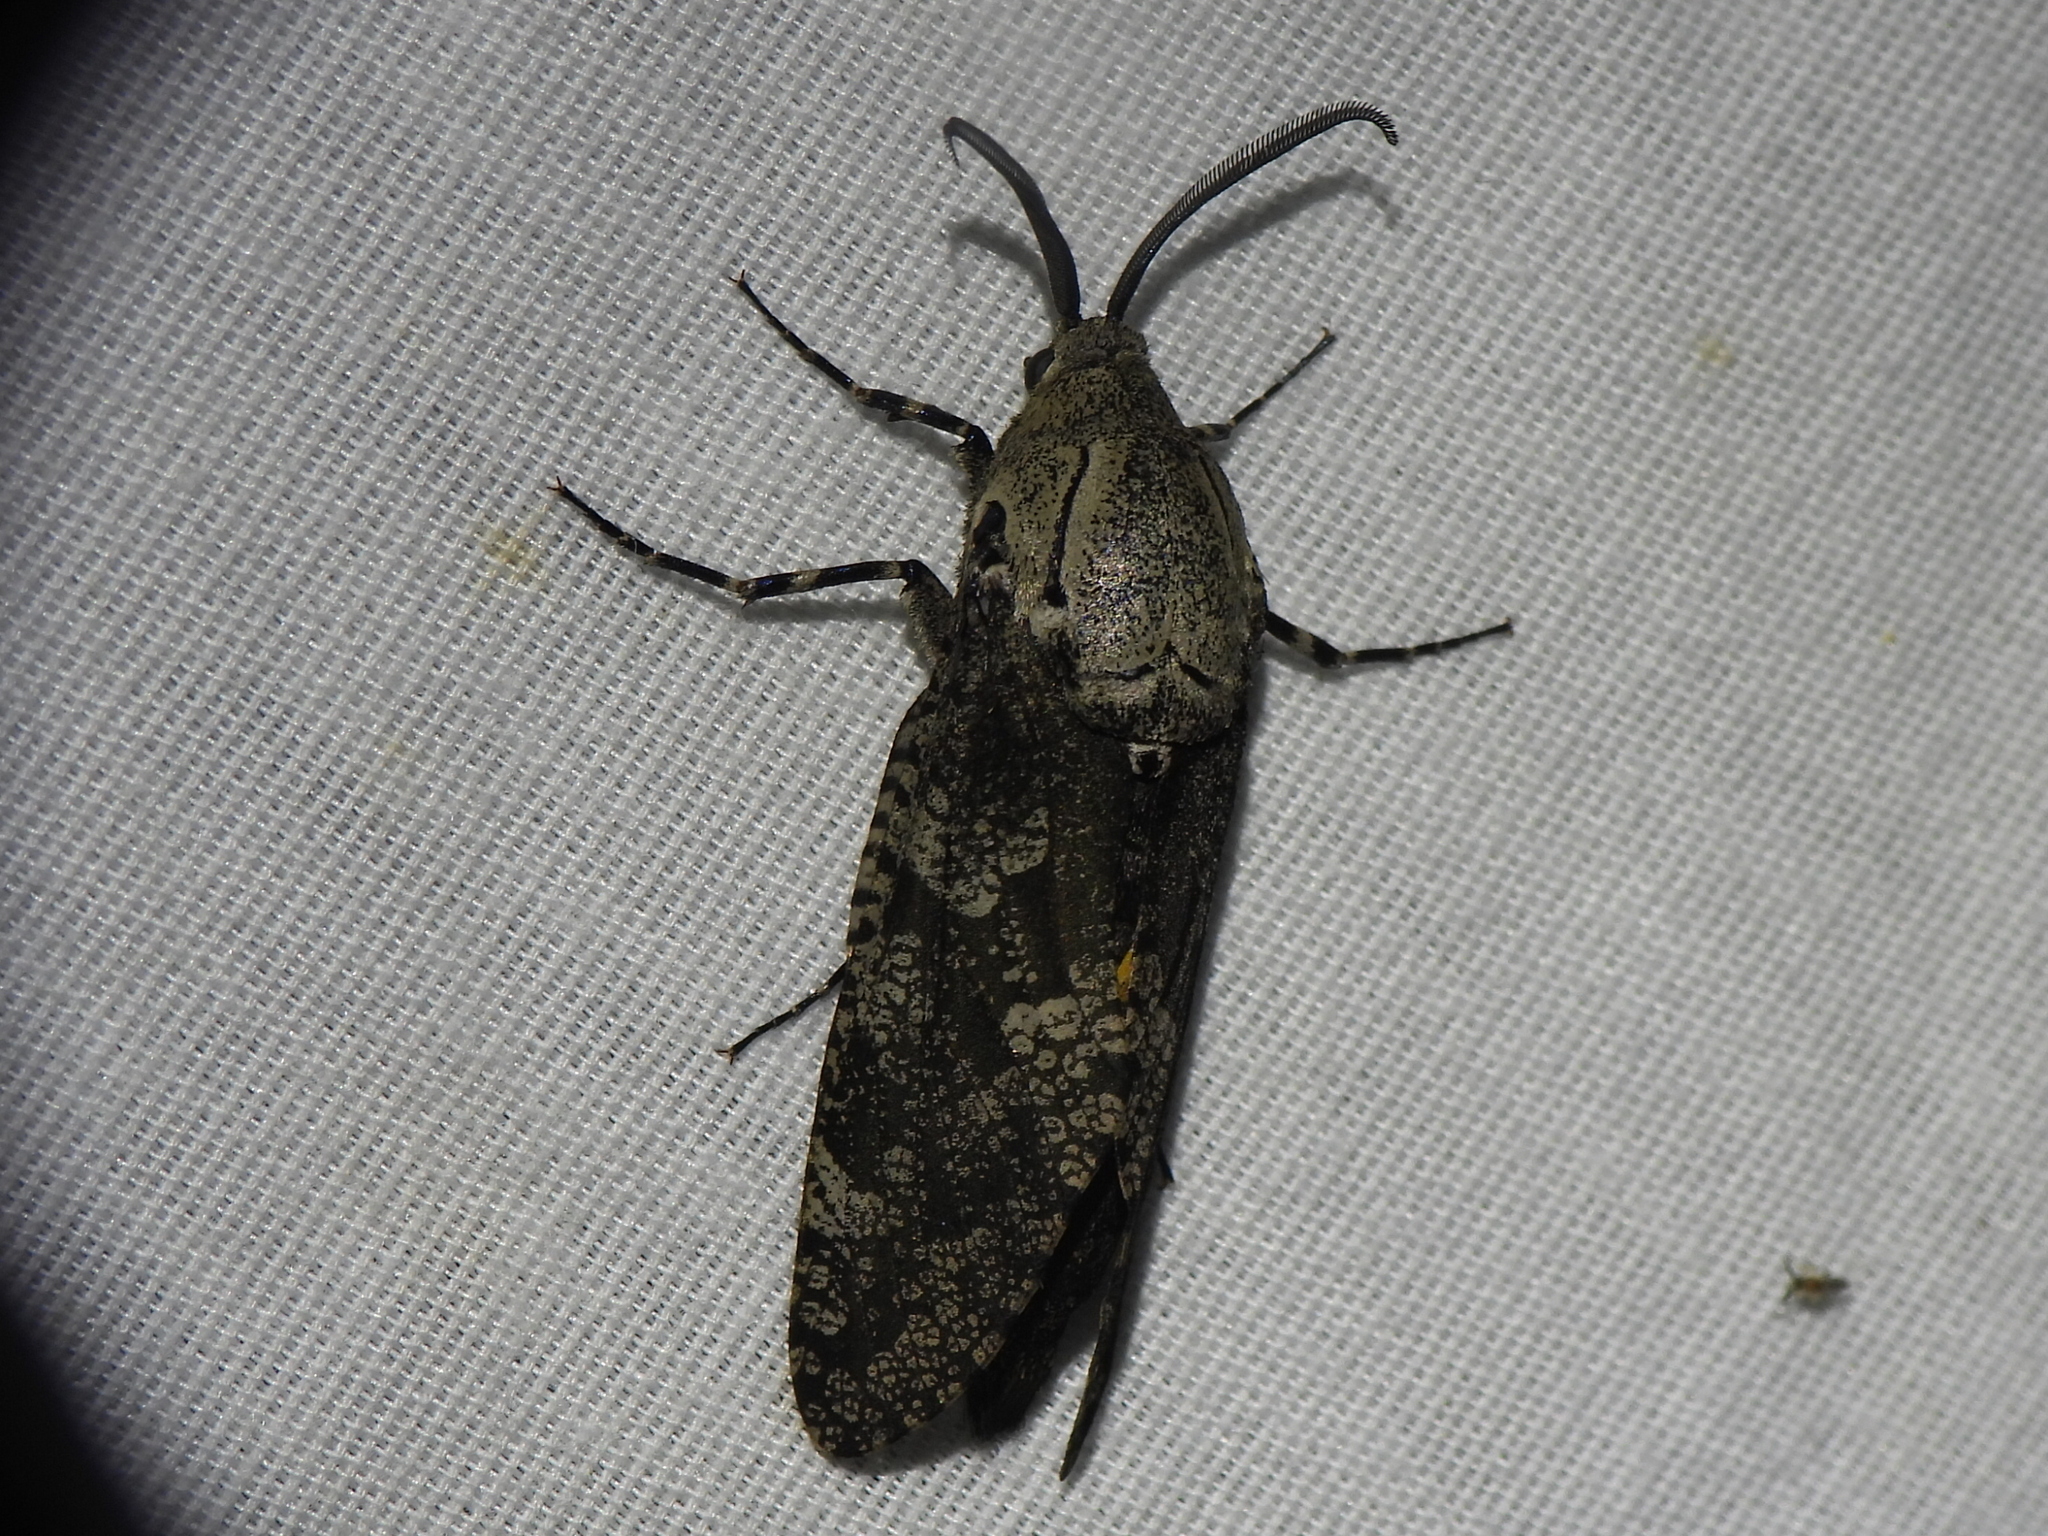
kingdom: Animalia
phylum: Arthropoda
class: Insecta
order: Lepidoptera
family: Cossidae
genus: Prionoxystus
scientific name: Prionoxystus robiniae
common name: Carpenterworm
